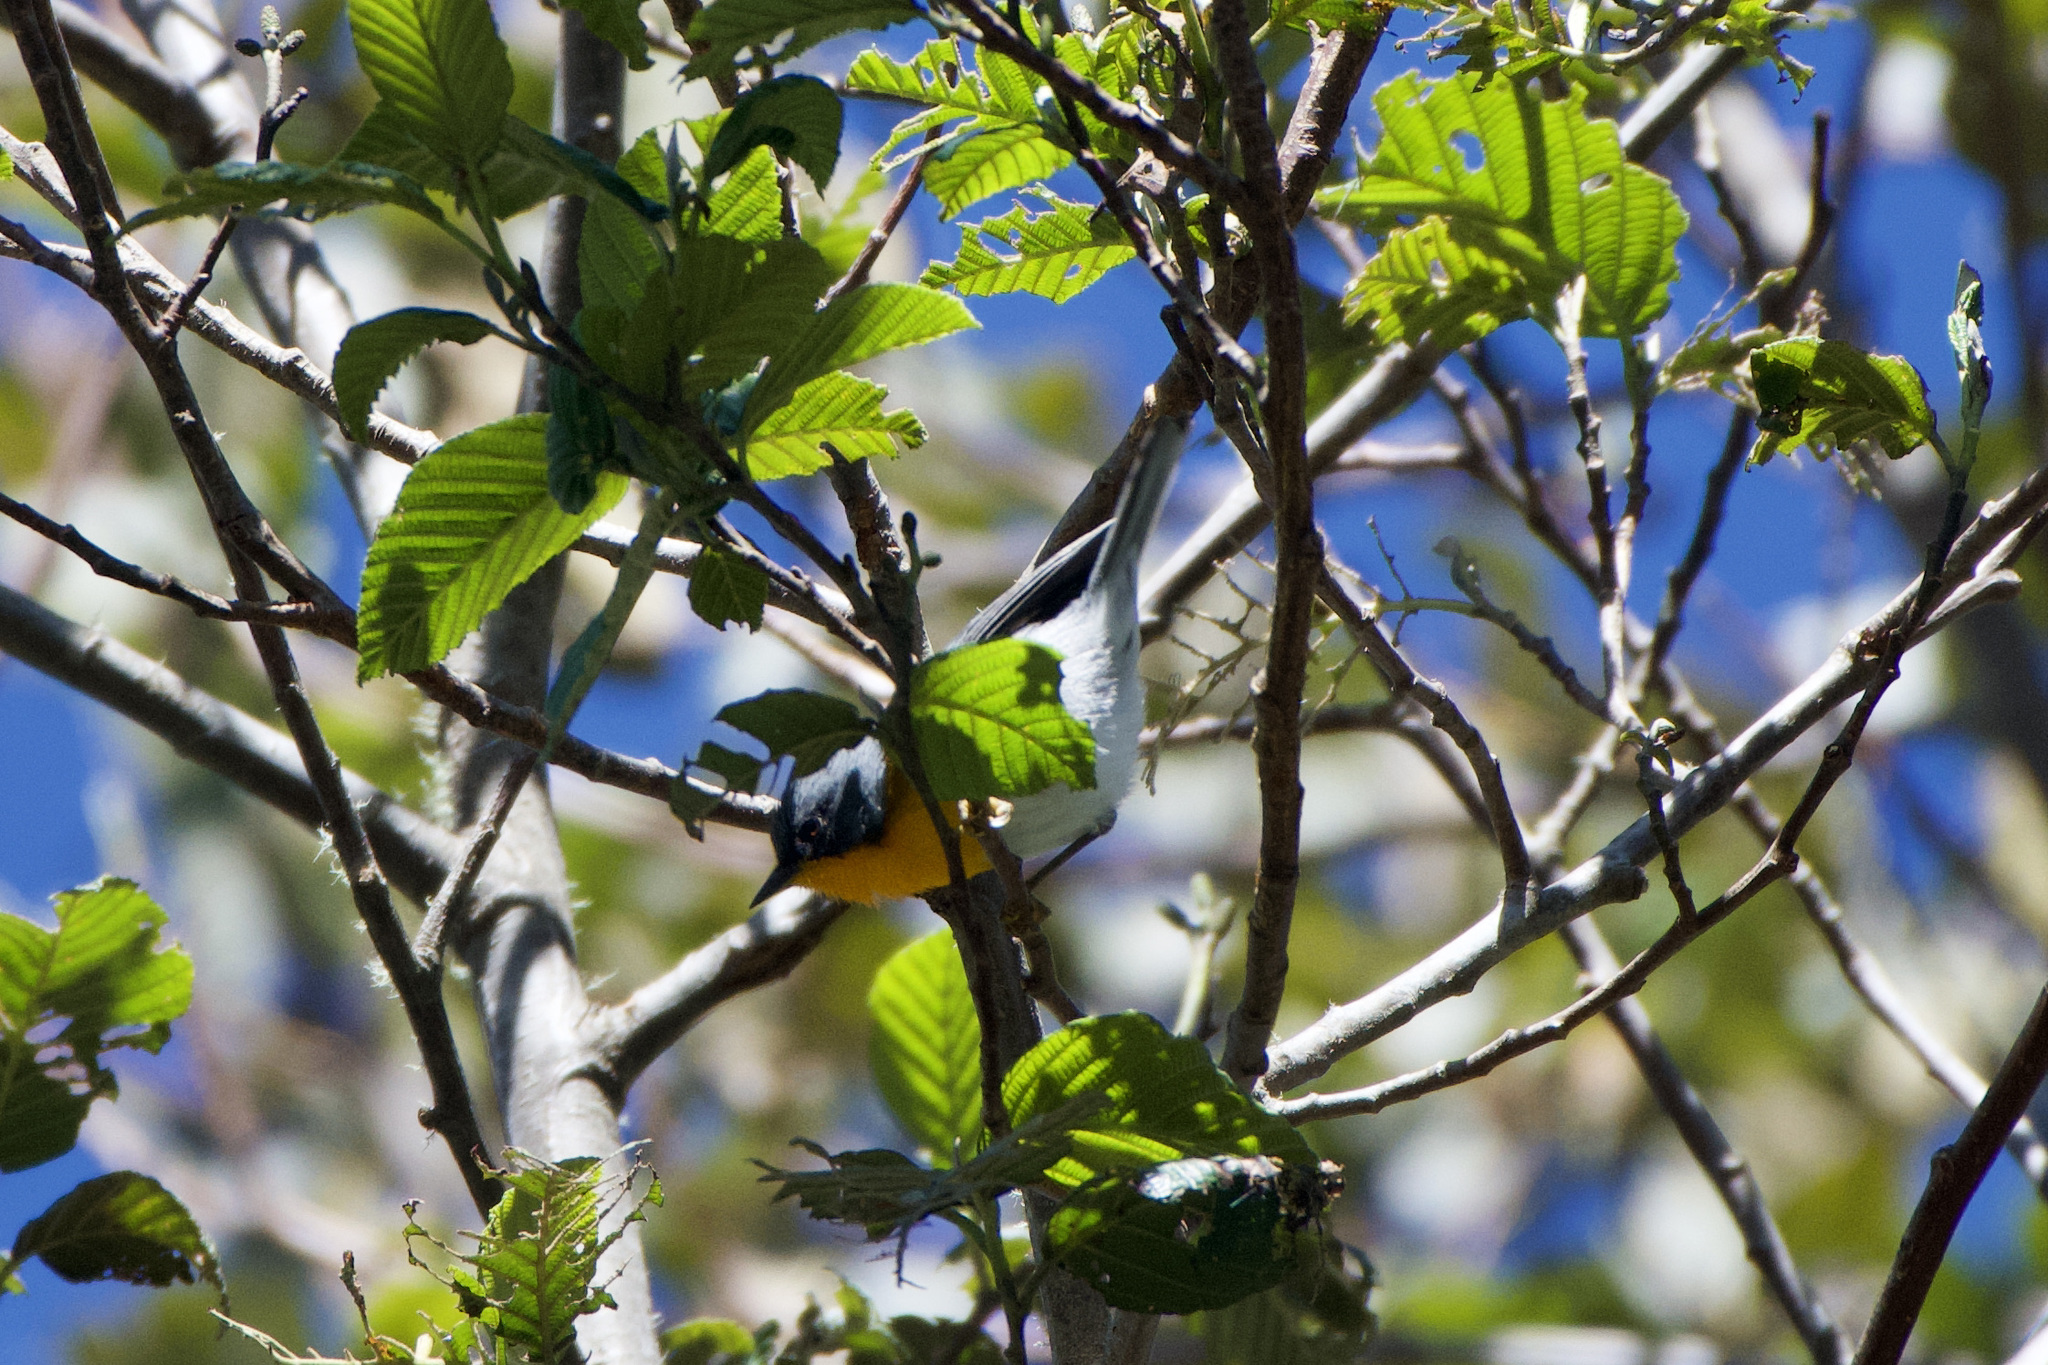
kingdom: Animalia
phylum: Chordata
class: Aves
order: Passeriformes
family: Parulidae
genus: Oreothlypis
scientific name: Oreothlypis gutturalis
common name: Flame-throated warbler
